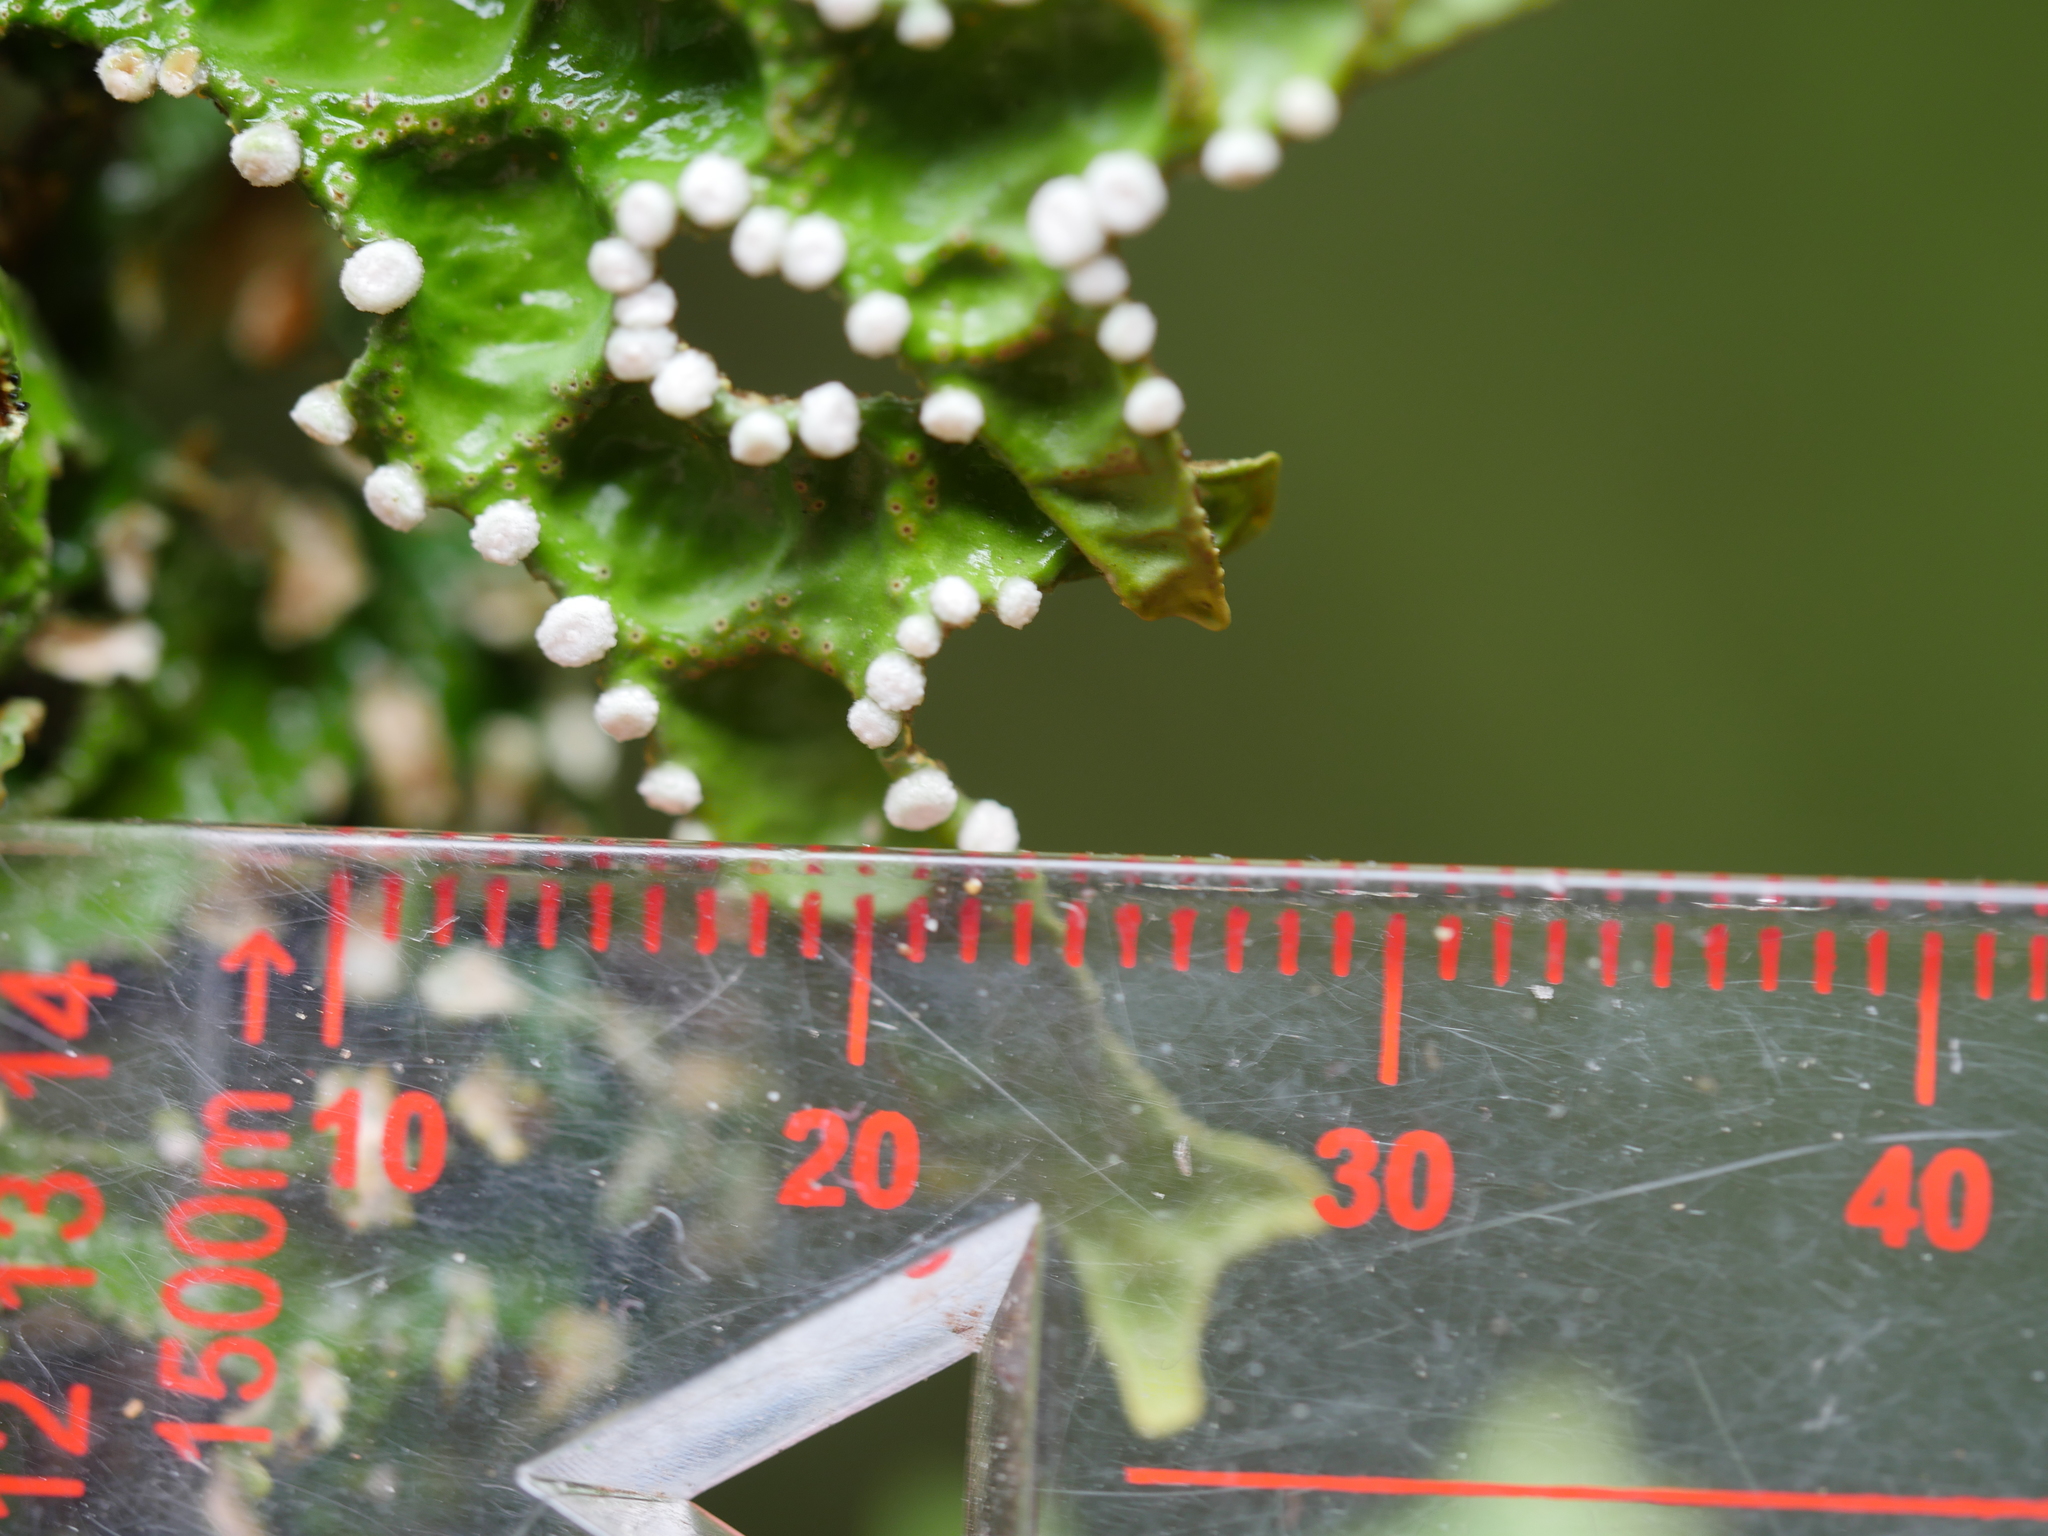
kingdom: Fungi
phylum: Ascomycota
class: Lecanoromycetes
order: Peltigerales
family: Lobariaceae
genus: Pseudocyphellaria
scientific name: Pseudocyphellaria faveolata
